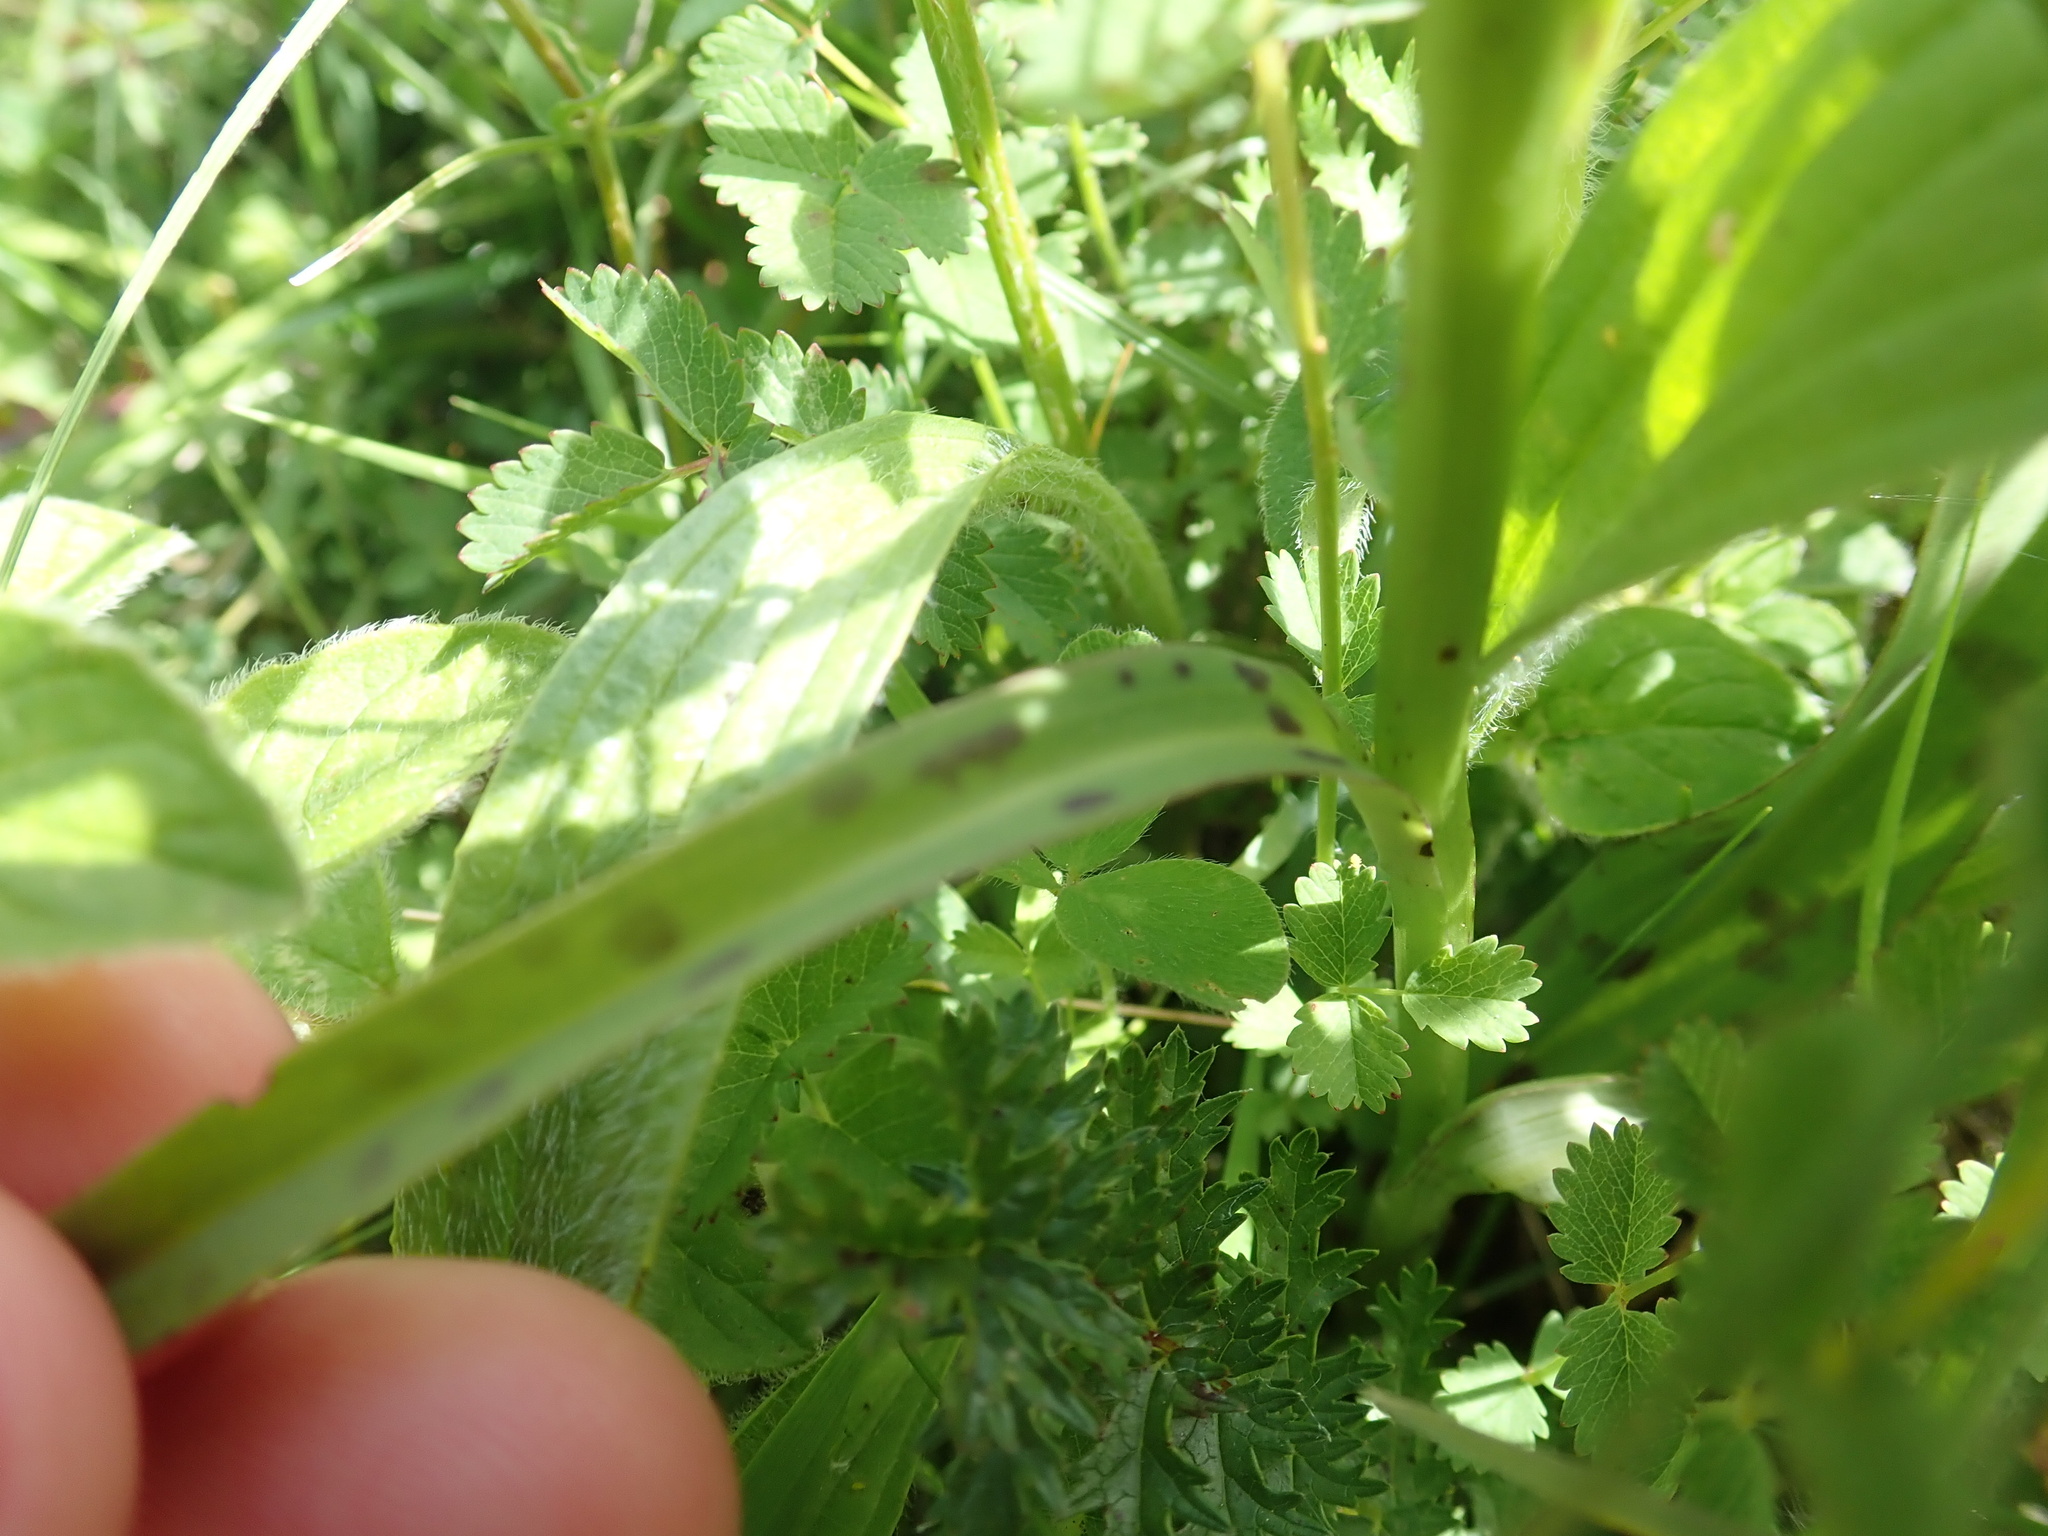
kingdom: Plantae
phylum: Tracheophyta
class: Liliopsida
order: Asparagales
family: Orchidaceae
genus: Dactylorhiza
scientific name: Dactylorhiza maculata
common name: Heath spotted-orchid
